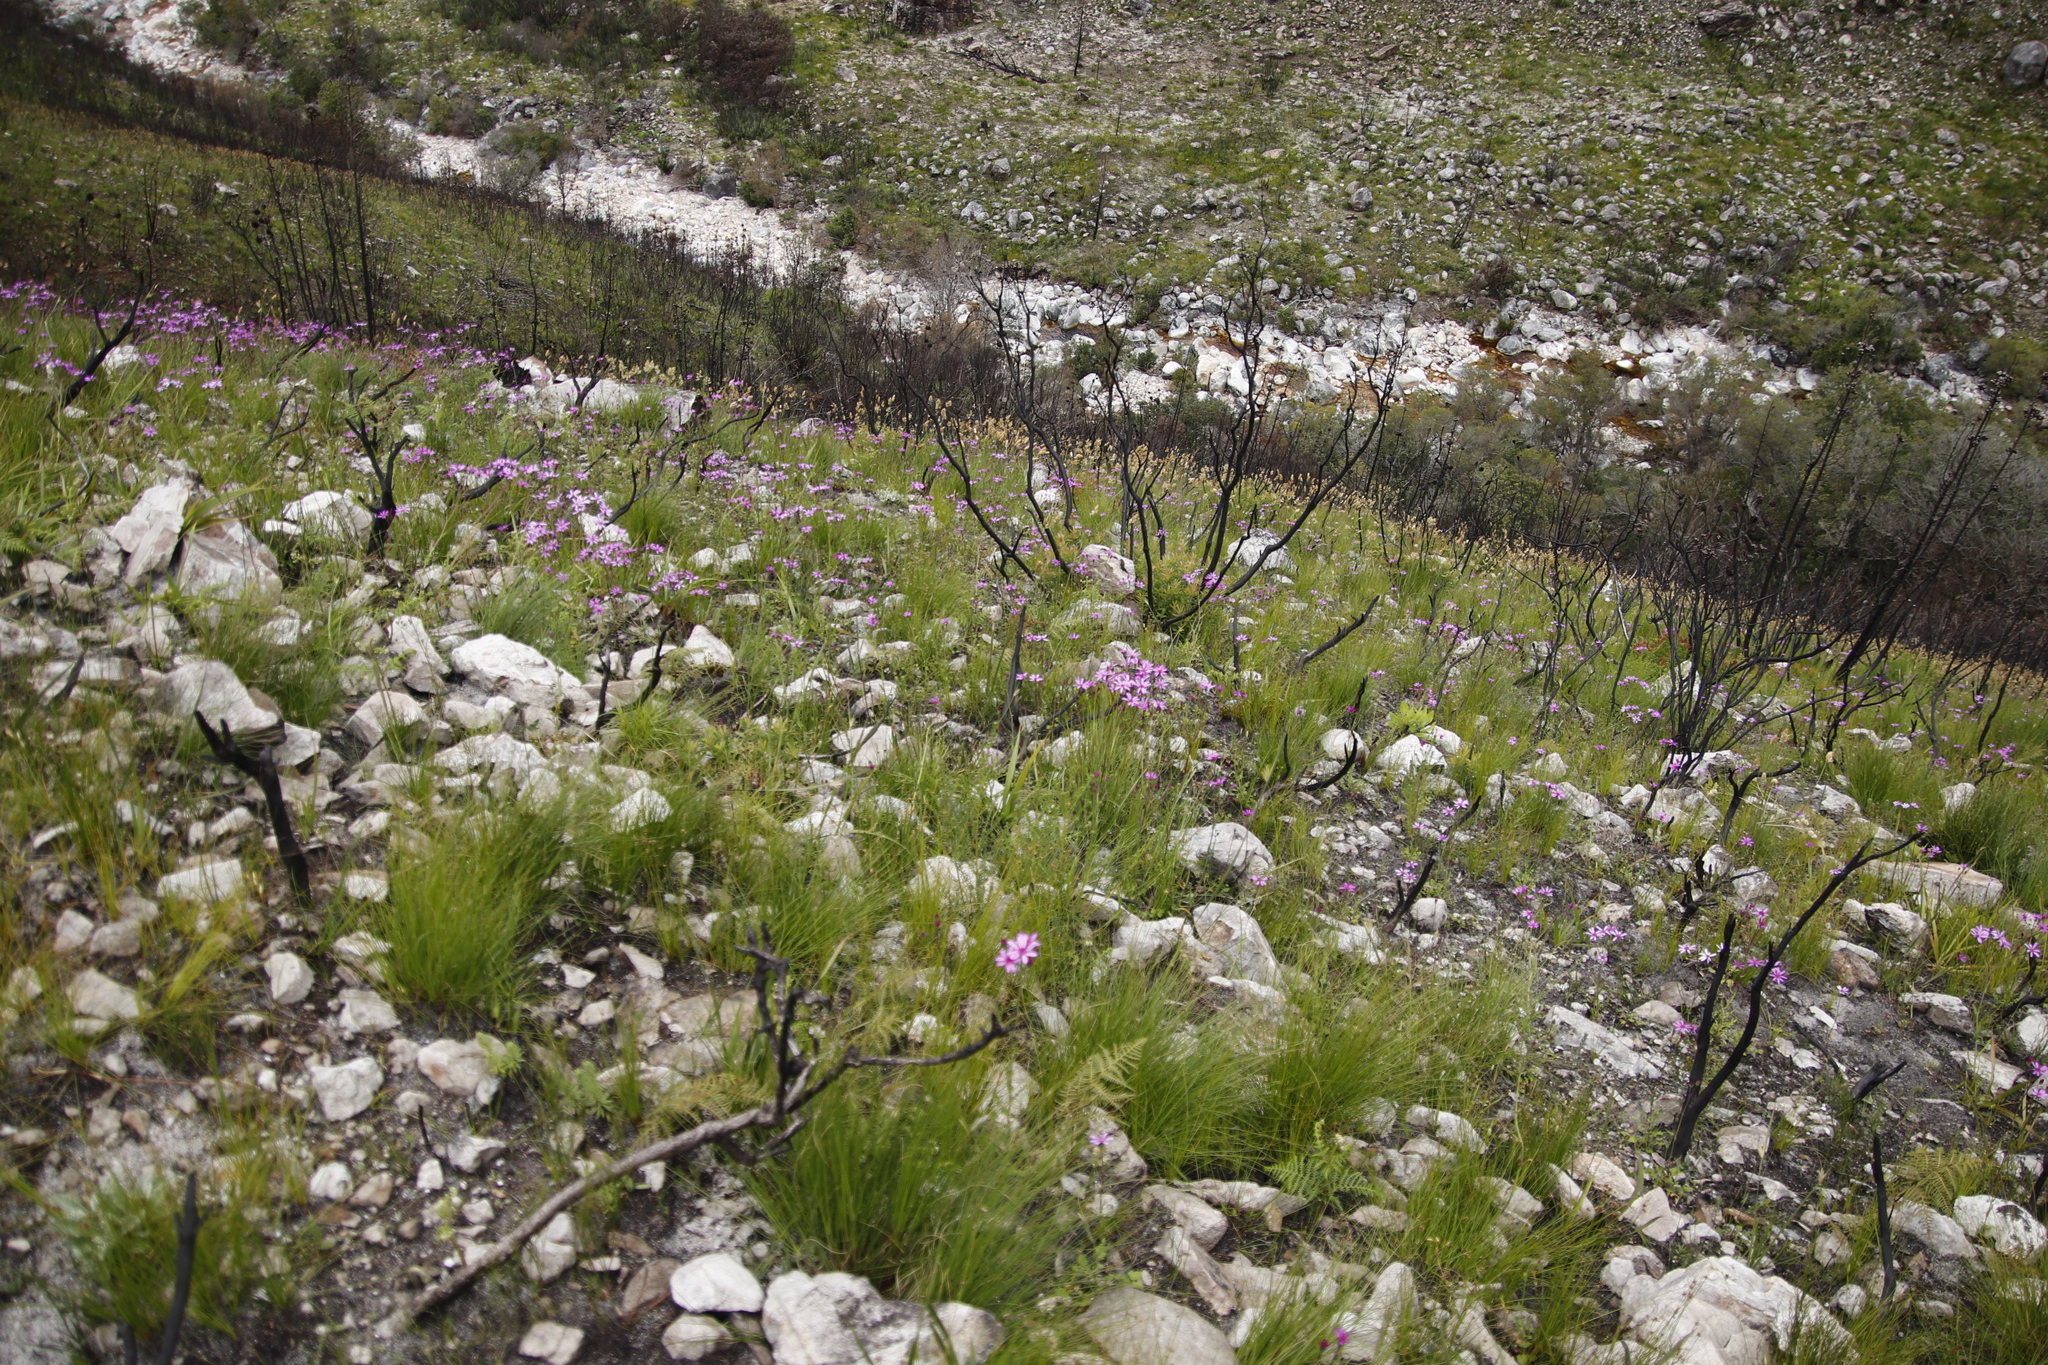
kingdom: Plantae
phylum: Tracheophyta
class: Magnoliopsida
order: Asterales
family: Asteraceae
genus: Senecio
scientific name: Senecio cymbalariifolius
